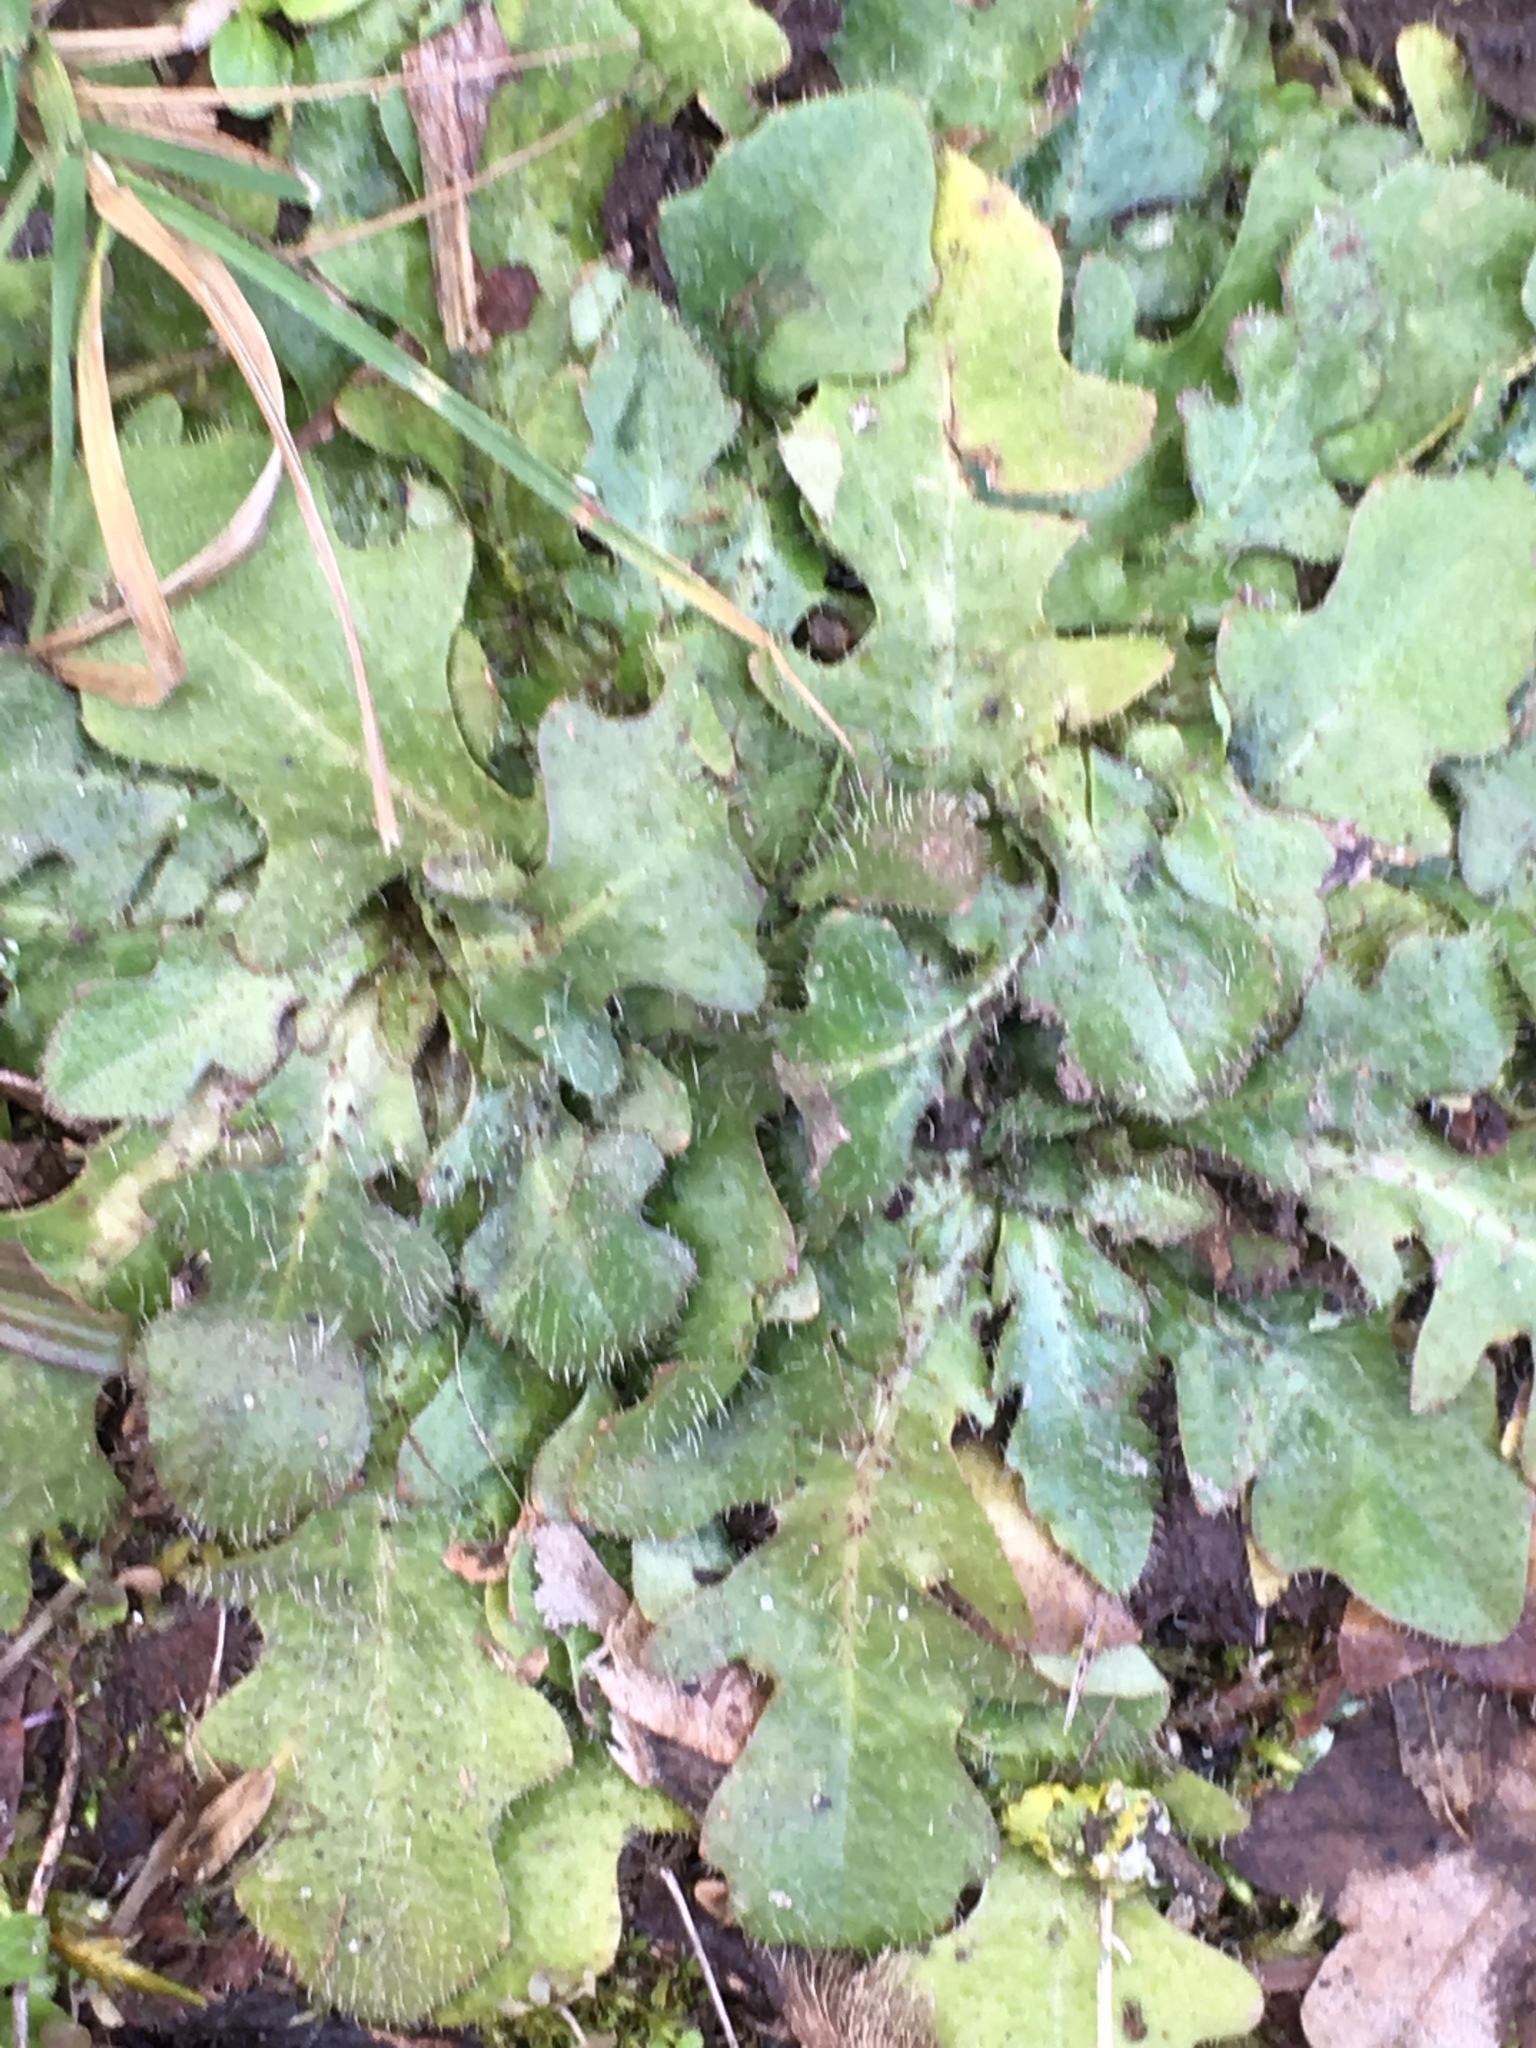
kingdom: Plantae
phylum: Tracheophyta
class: Magnoliopsida
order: Asterales
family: Asteraceae
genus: Hypochaeris
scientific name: Hypochaeris radicata
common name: Flatweed
